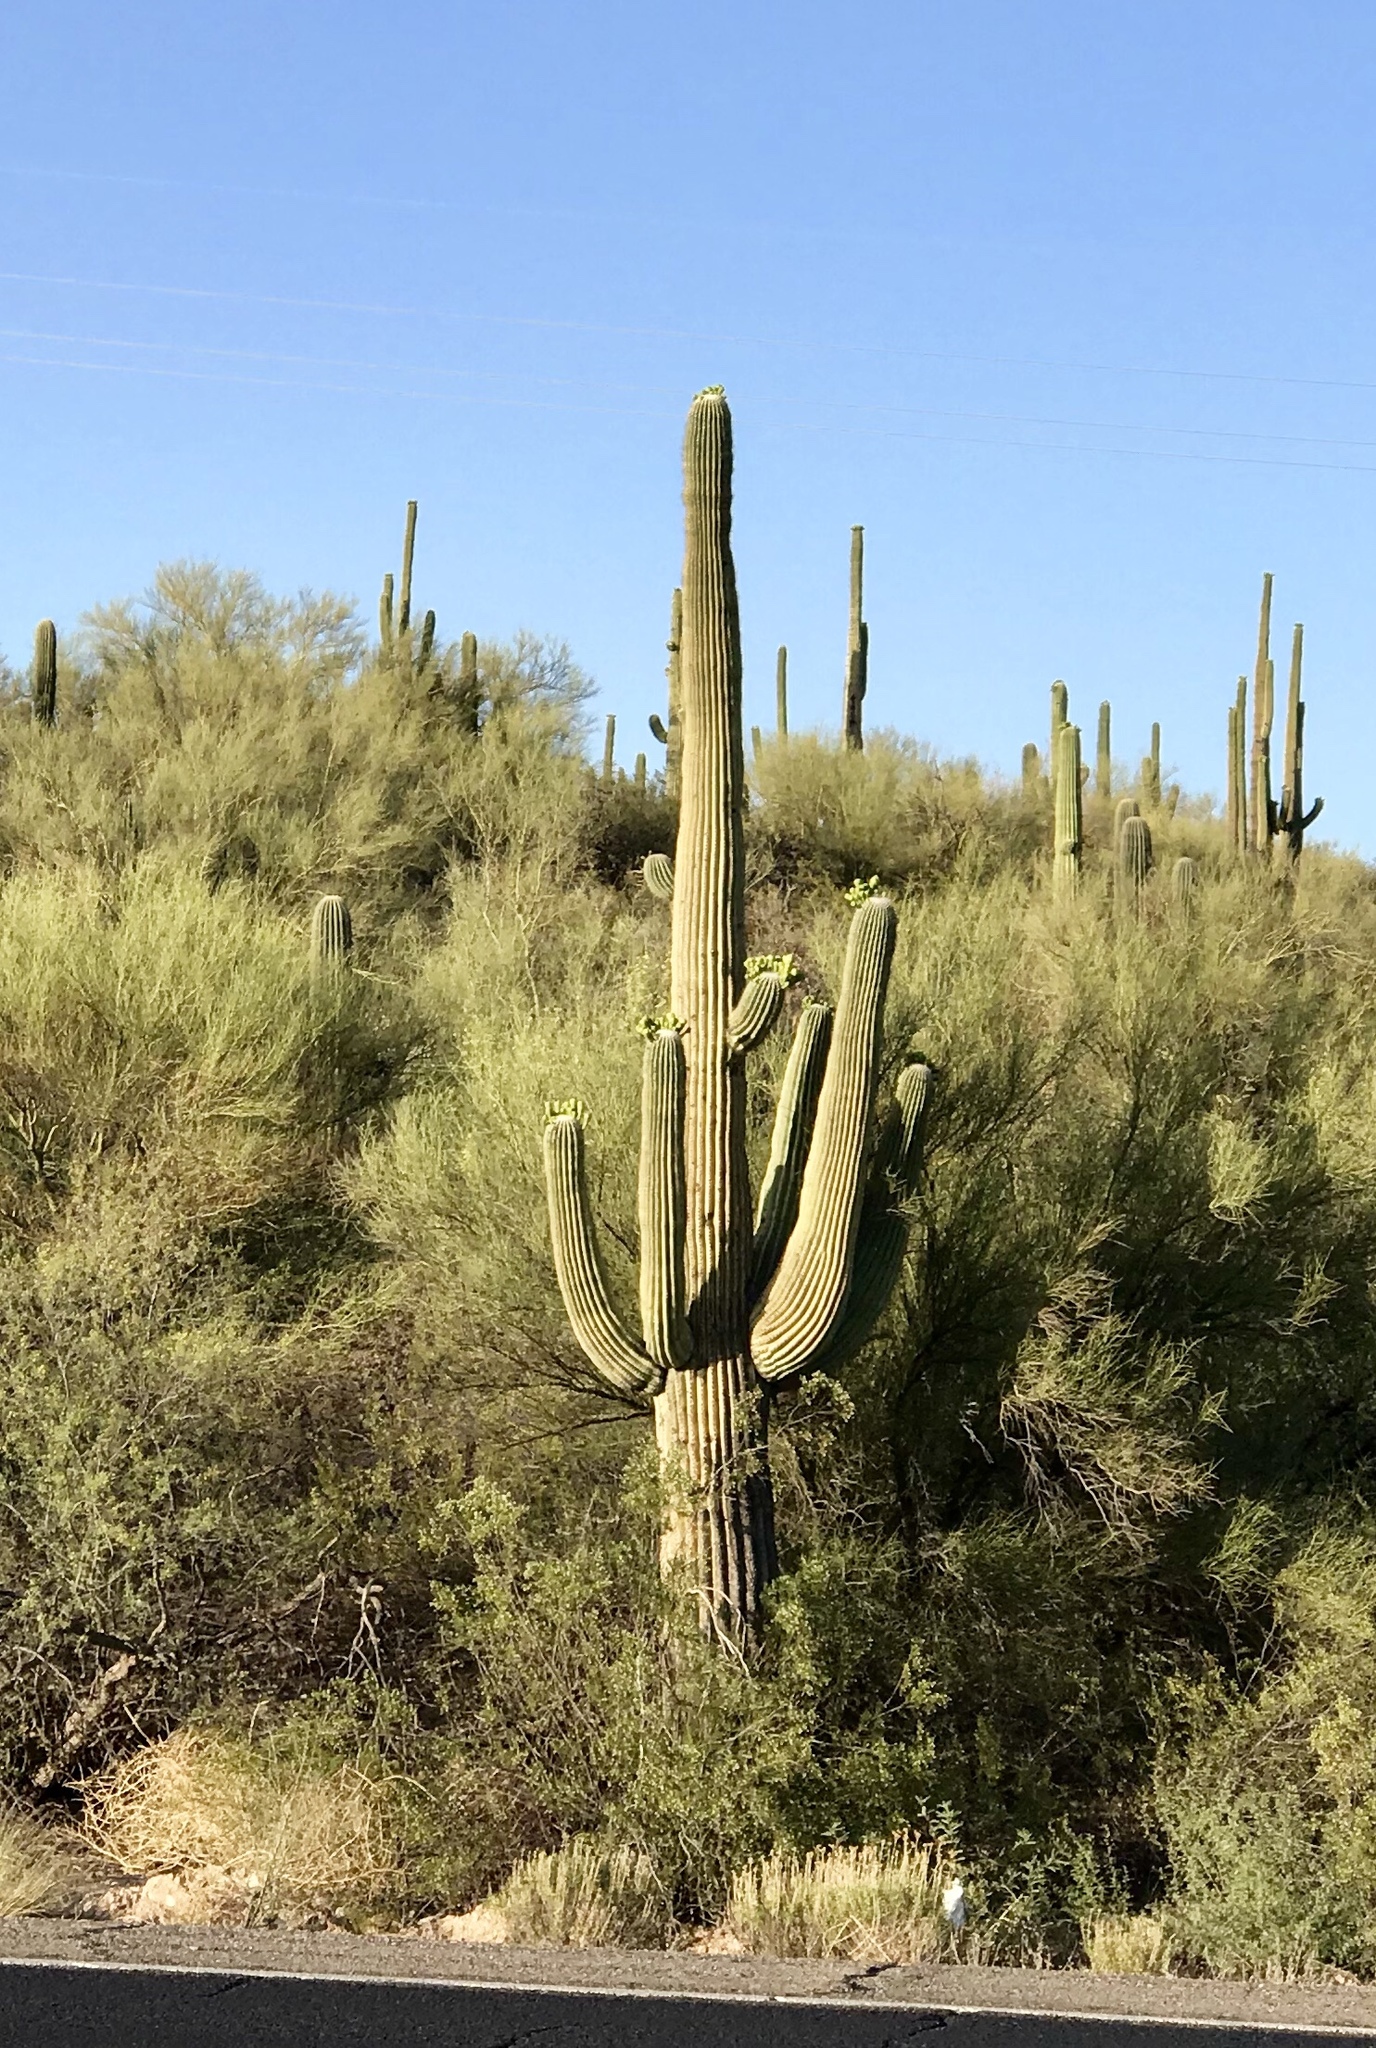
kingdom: Plantae
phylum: Tracheophyta
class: Magnoliopsida
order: Caryophyllales
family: Cactaceae
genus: Carnegiea
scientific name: Carnegiea gigantea
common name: Saguaro
